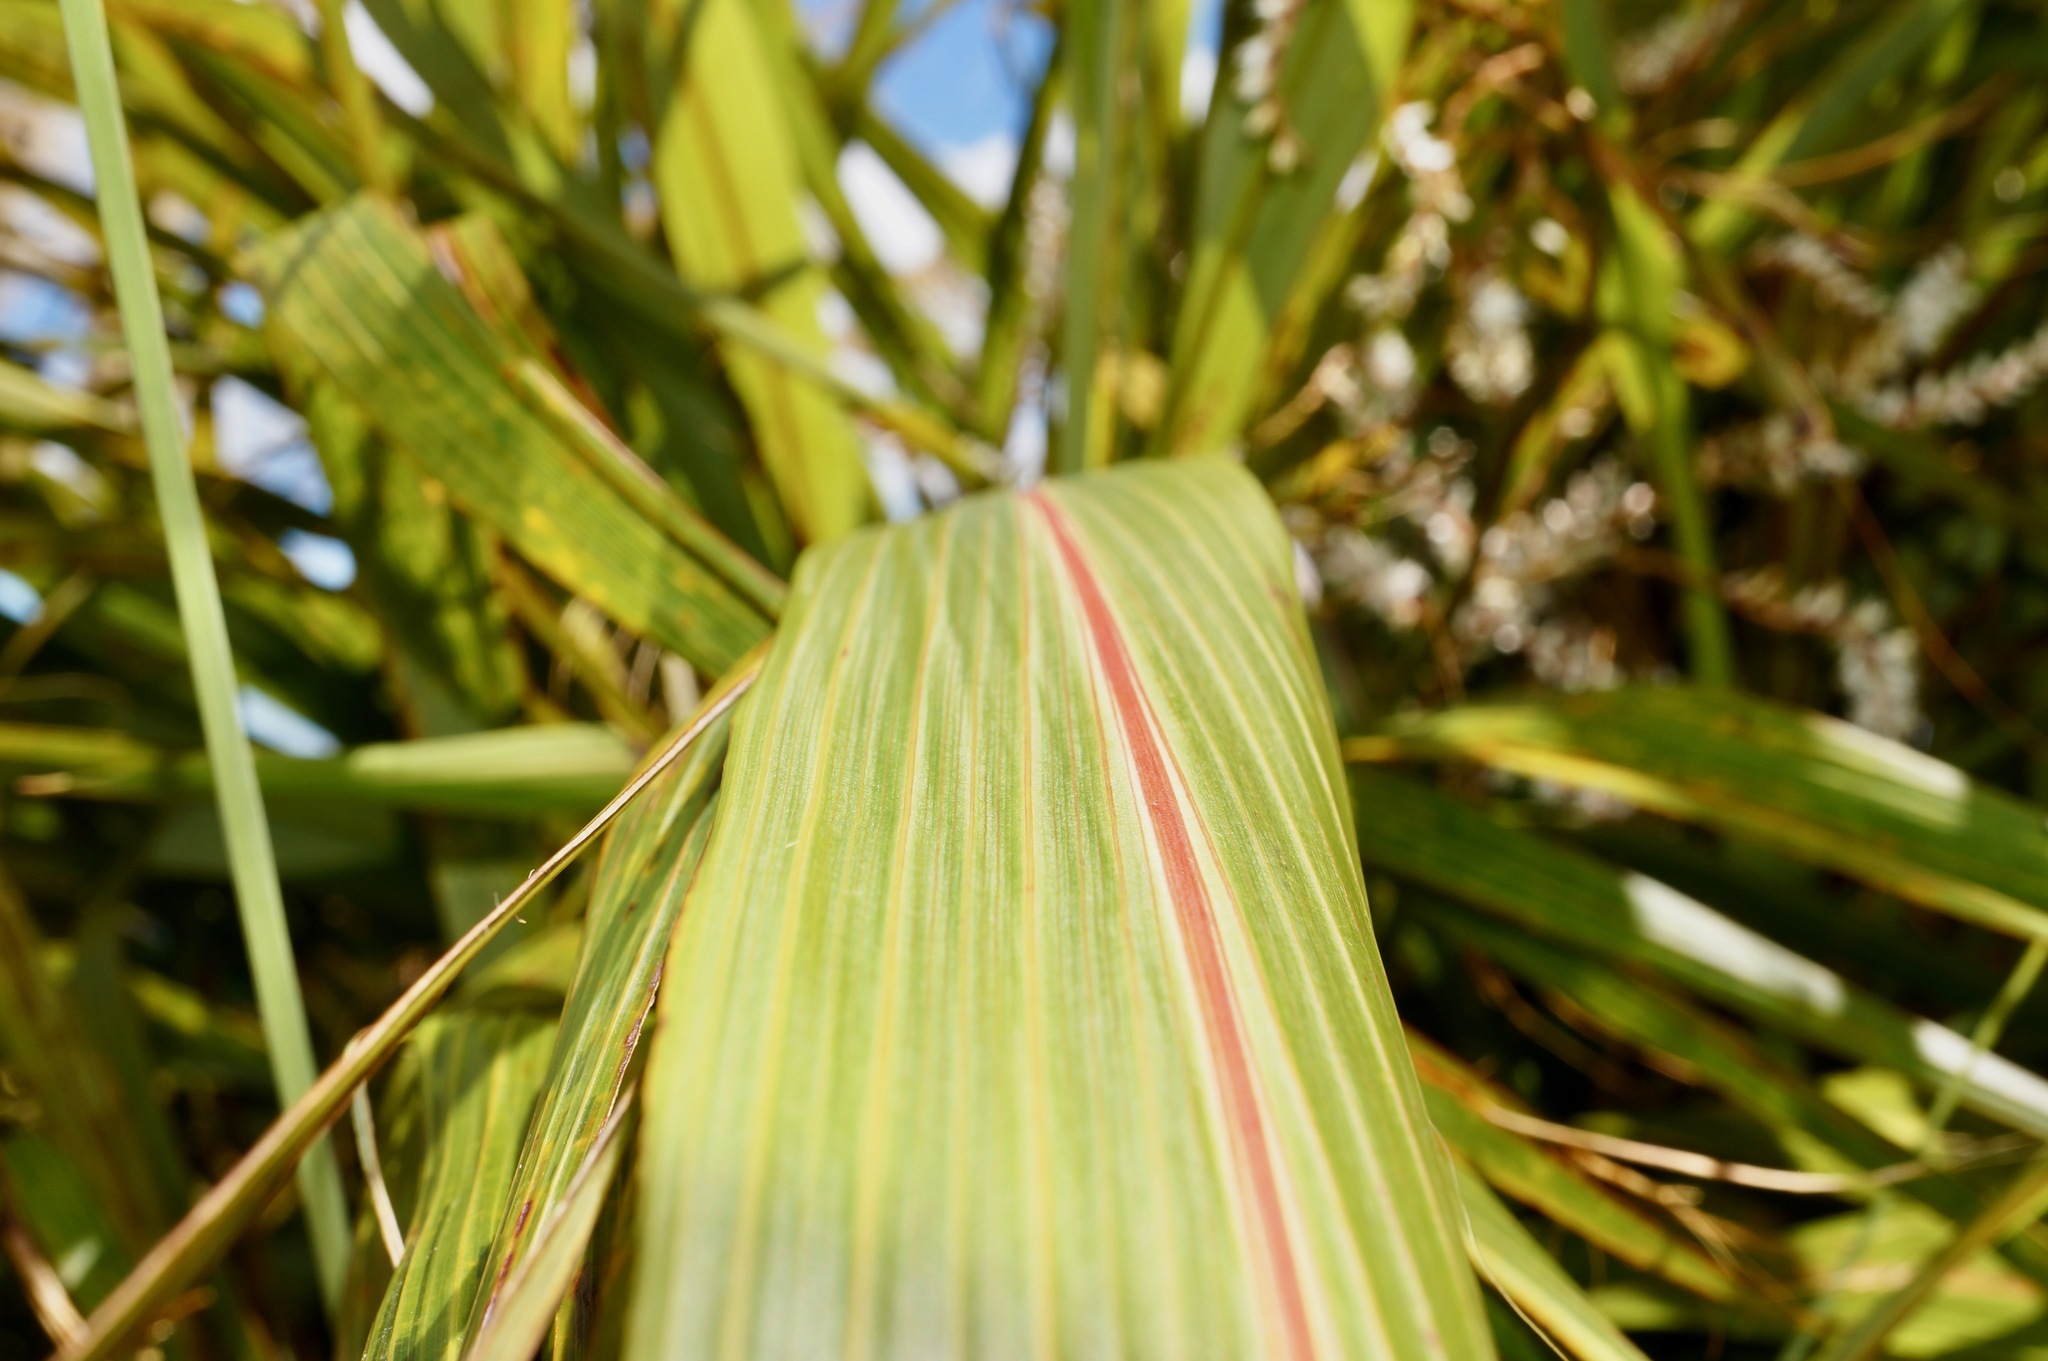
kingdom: Plantae
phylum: Tracheophyta
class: Liliopsida
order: Asparagales
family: Asparagaceae
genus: Cordyline
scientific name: Cordyline indivisa
